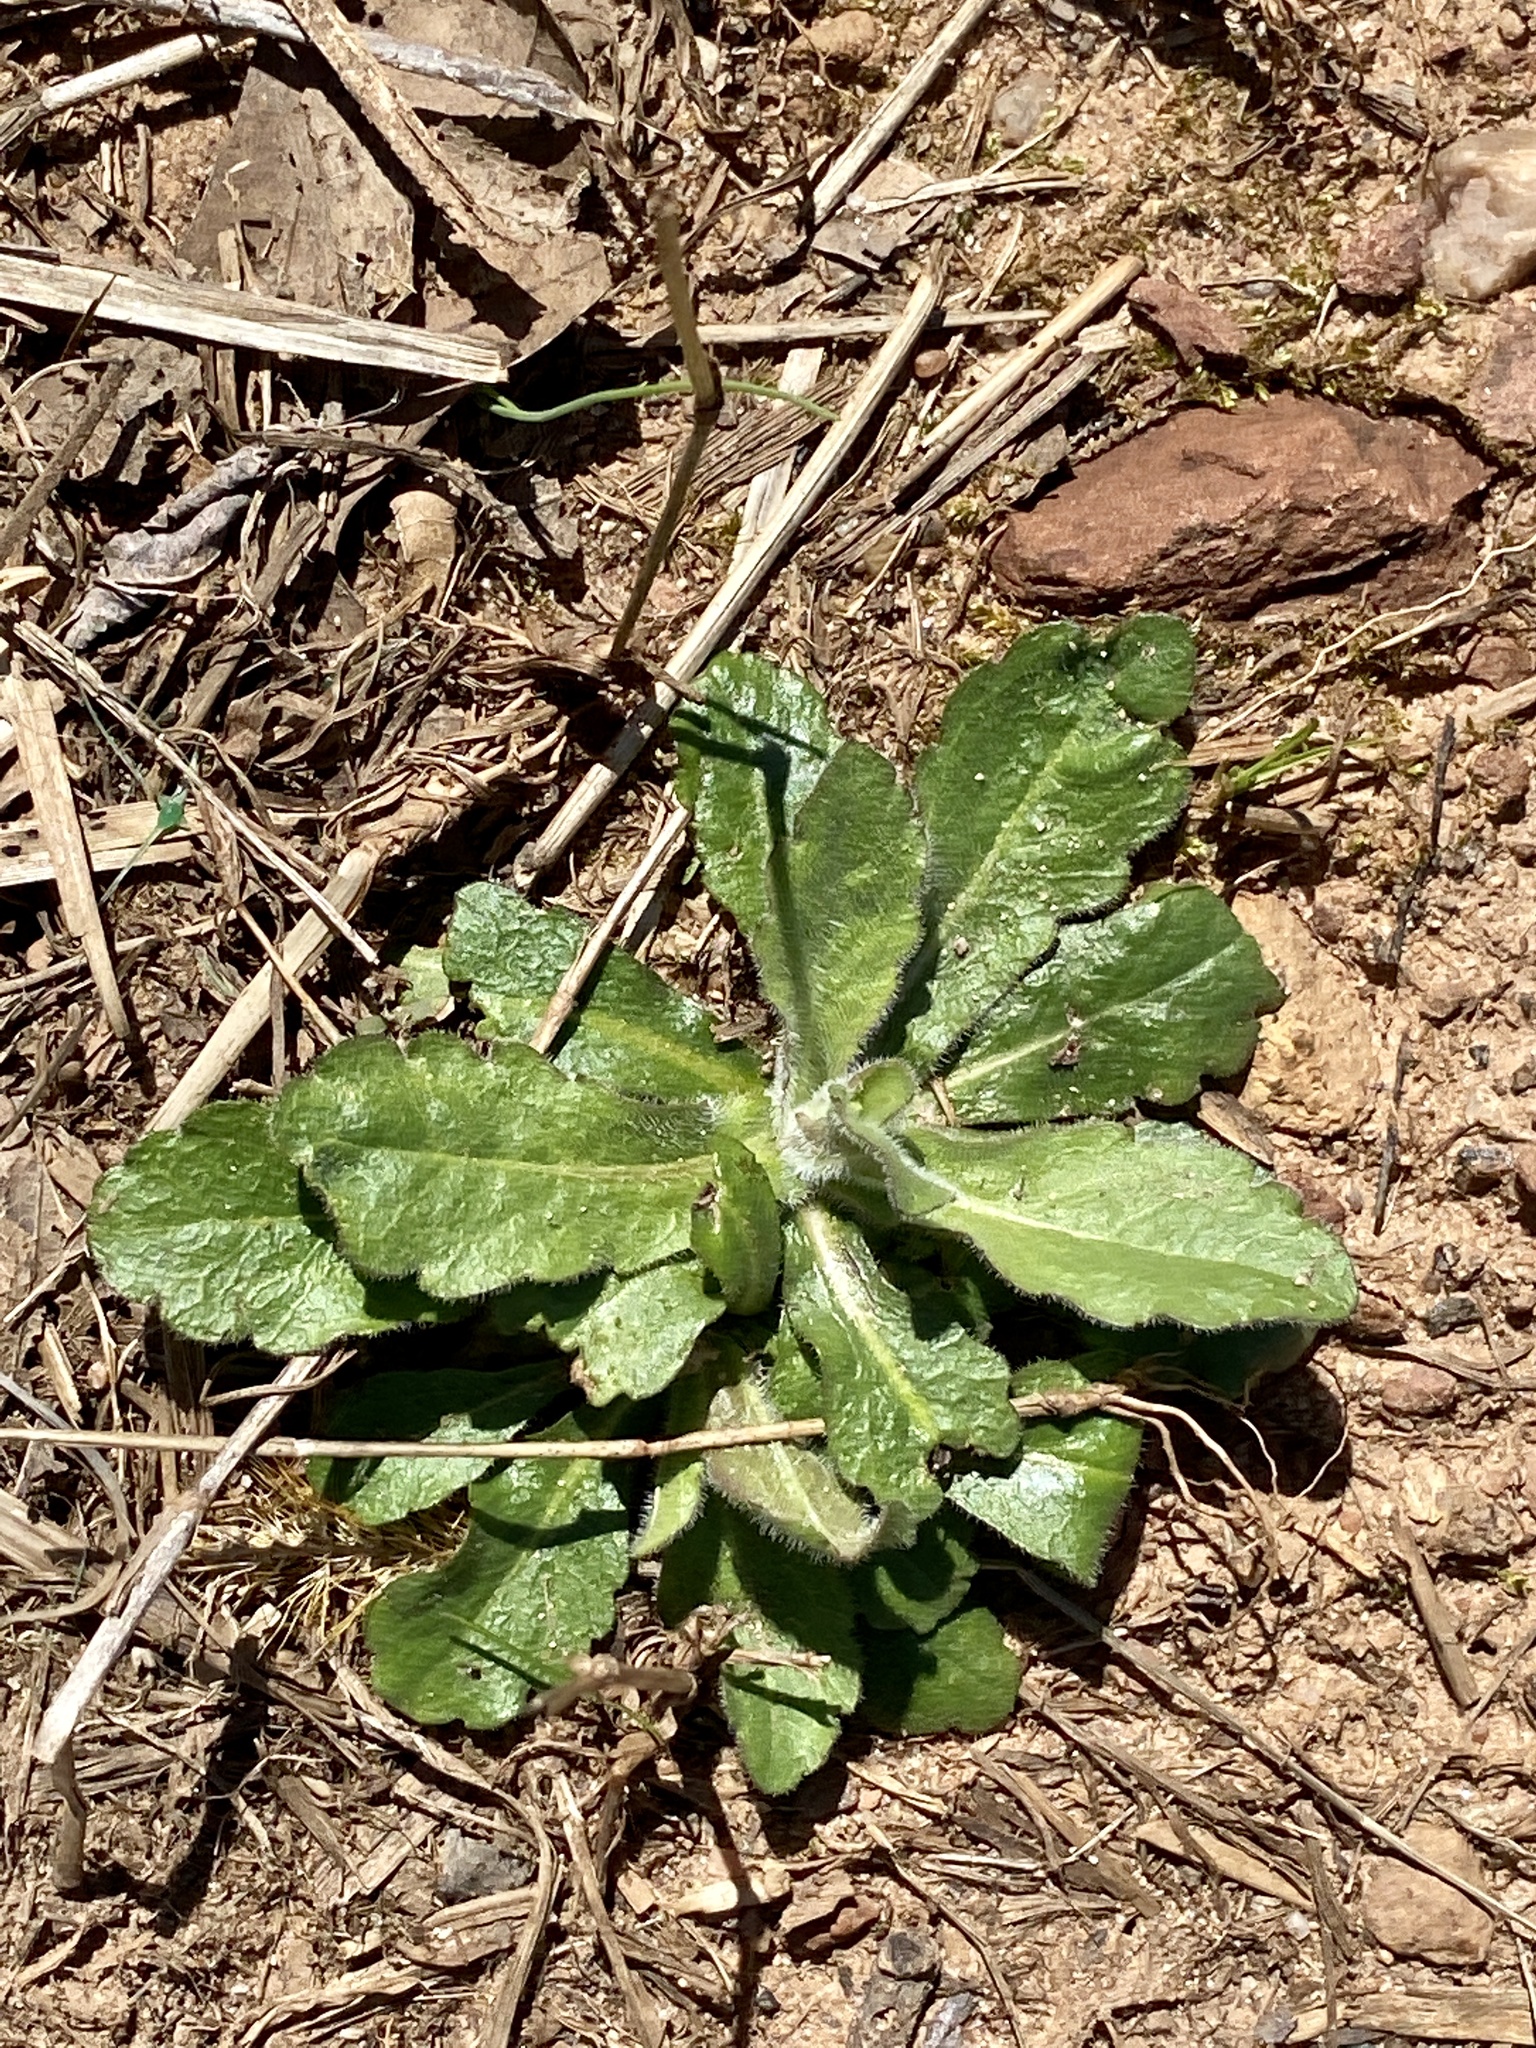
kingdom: Plantae
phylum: Tracheophyta
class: Magnoliopsida
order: Asterales
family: Asteraceae
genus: Hypochaeris
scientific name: Hypochaeris radicata
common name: Flatweed
